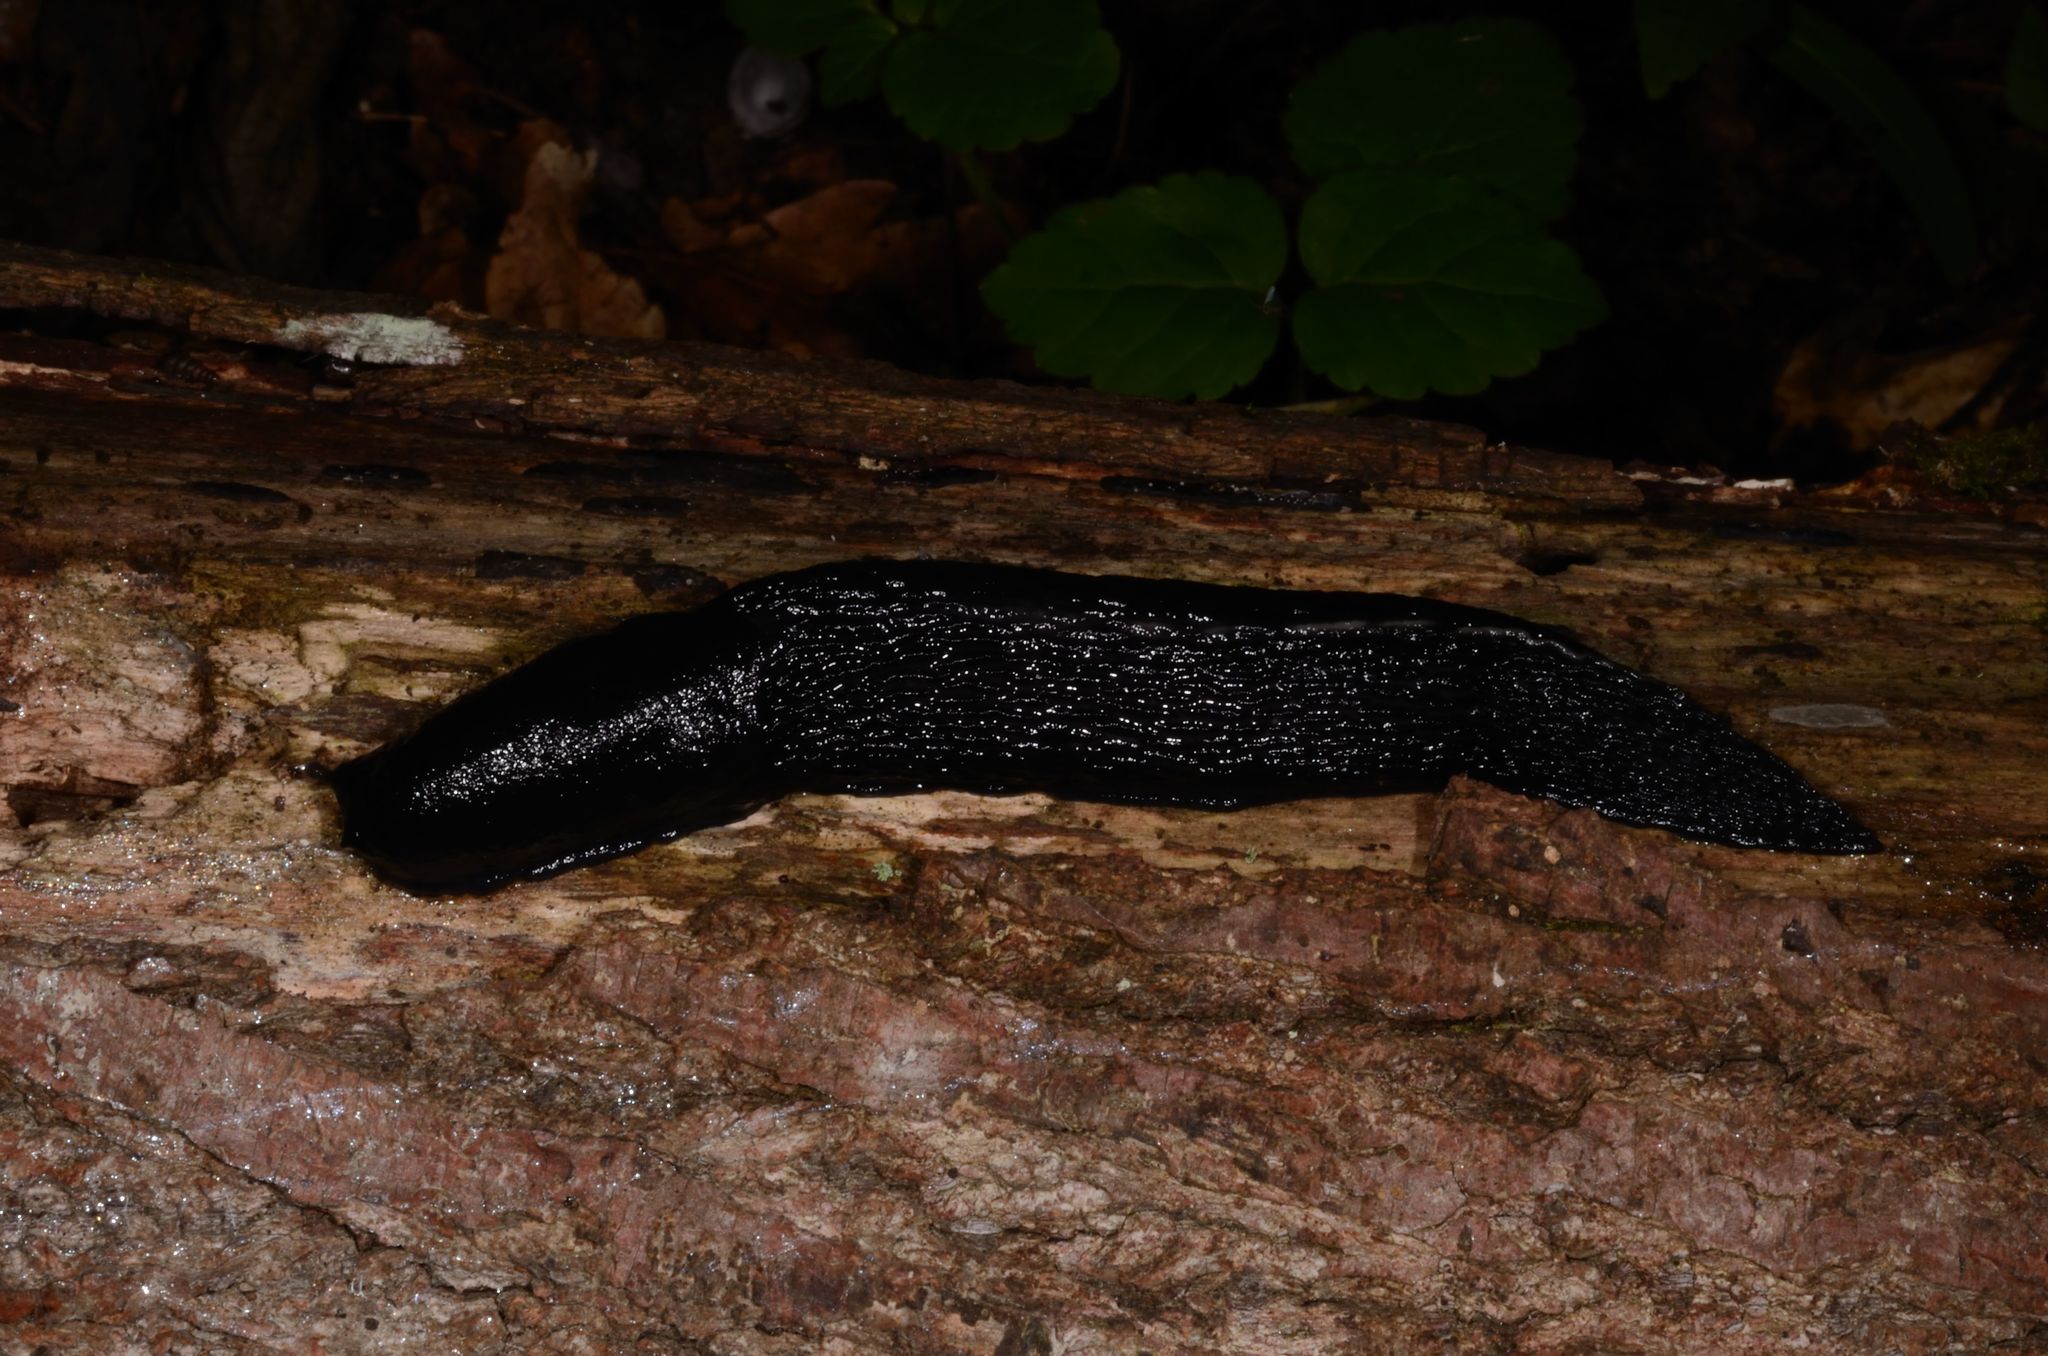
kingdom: Animalia
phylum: Mollusca
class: Gastropoda
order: Stylommatophora
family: Limacidae
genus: Limax
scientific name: Limax cinereoniger
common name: Ash-black slug
